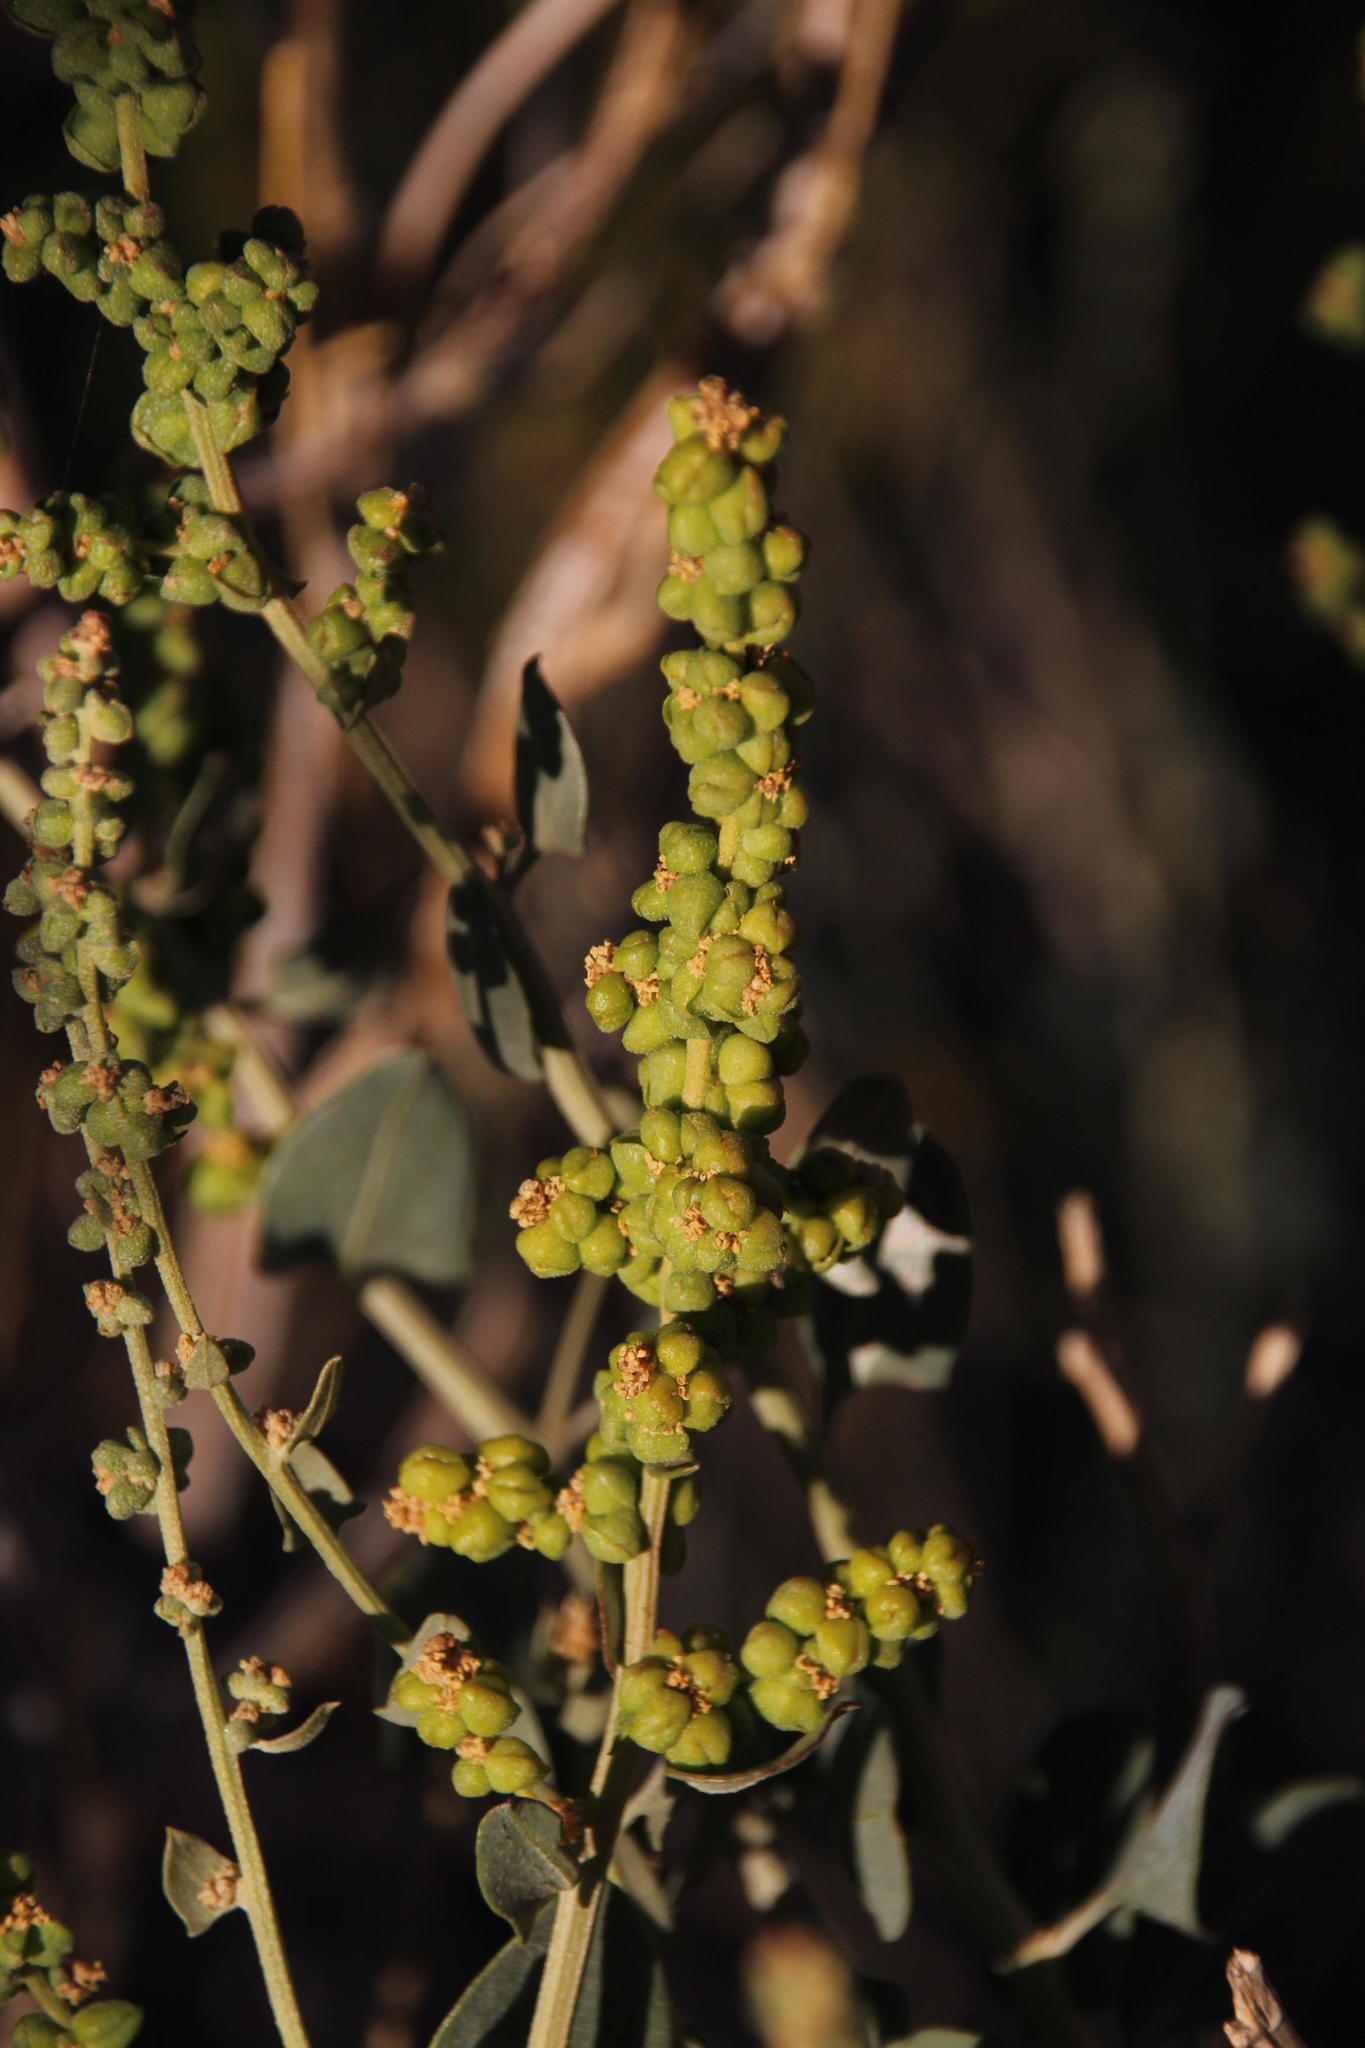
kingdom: Plantae
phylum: Tracheophyta
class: Magnoliopsida
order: Caryophyllales
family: Amaranthaceae
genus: Exomis
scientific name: Exomis albicans
